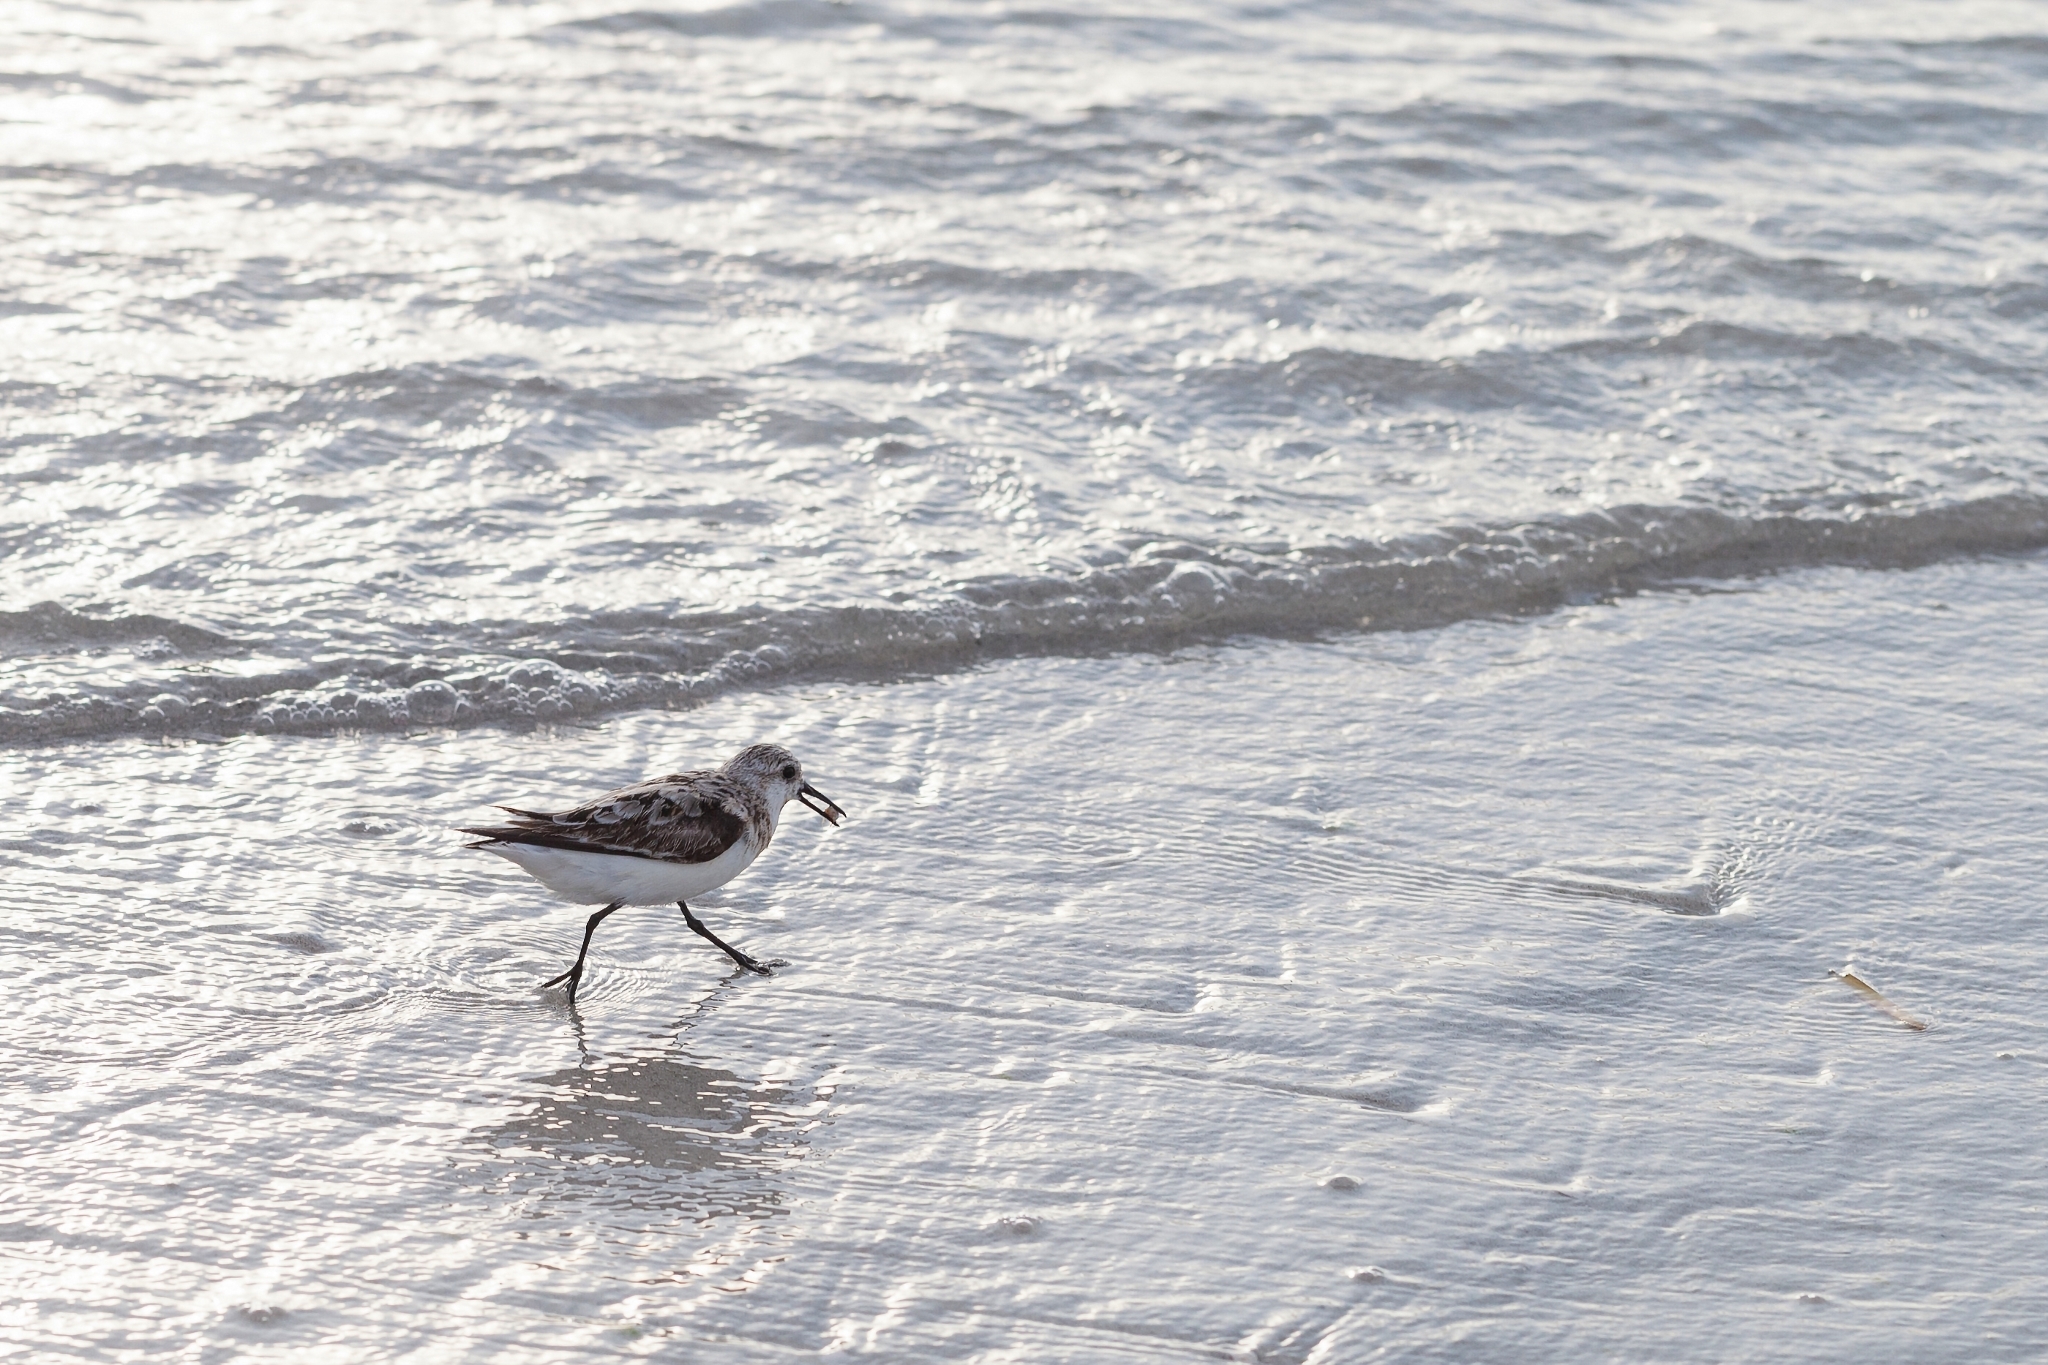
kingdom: Animalia
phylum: Chordata
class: Aves
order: Charadriiformes
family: Scolopacidae
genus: Calidris
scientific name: Calidris alba
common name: Sanderling
